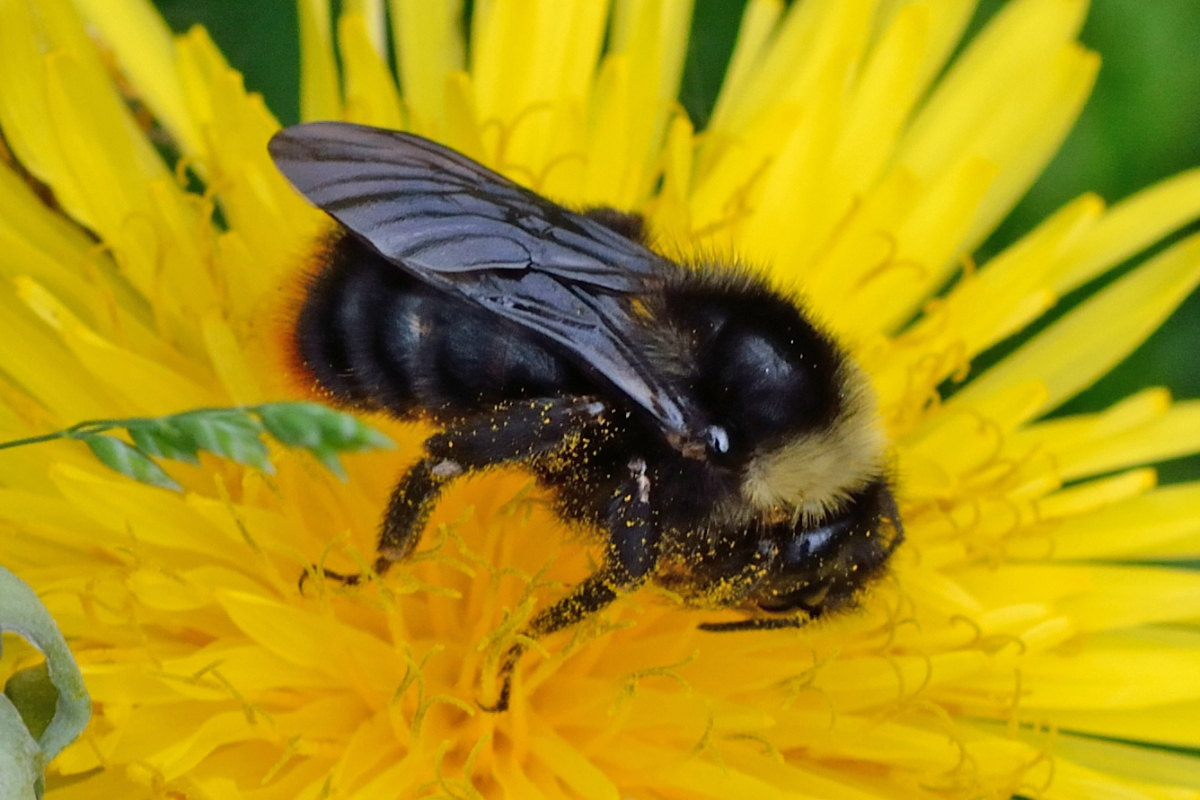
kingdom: Animalia
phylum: Arthropoda
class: Insecta
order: Hymenoptera
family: Apidae
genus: Bombus
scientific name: Bombus rupestris
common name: Hill cuckoo-bee
